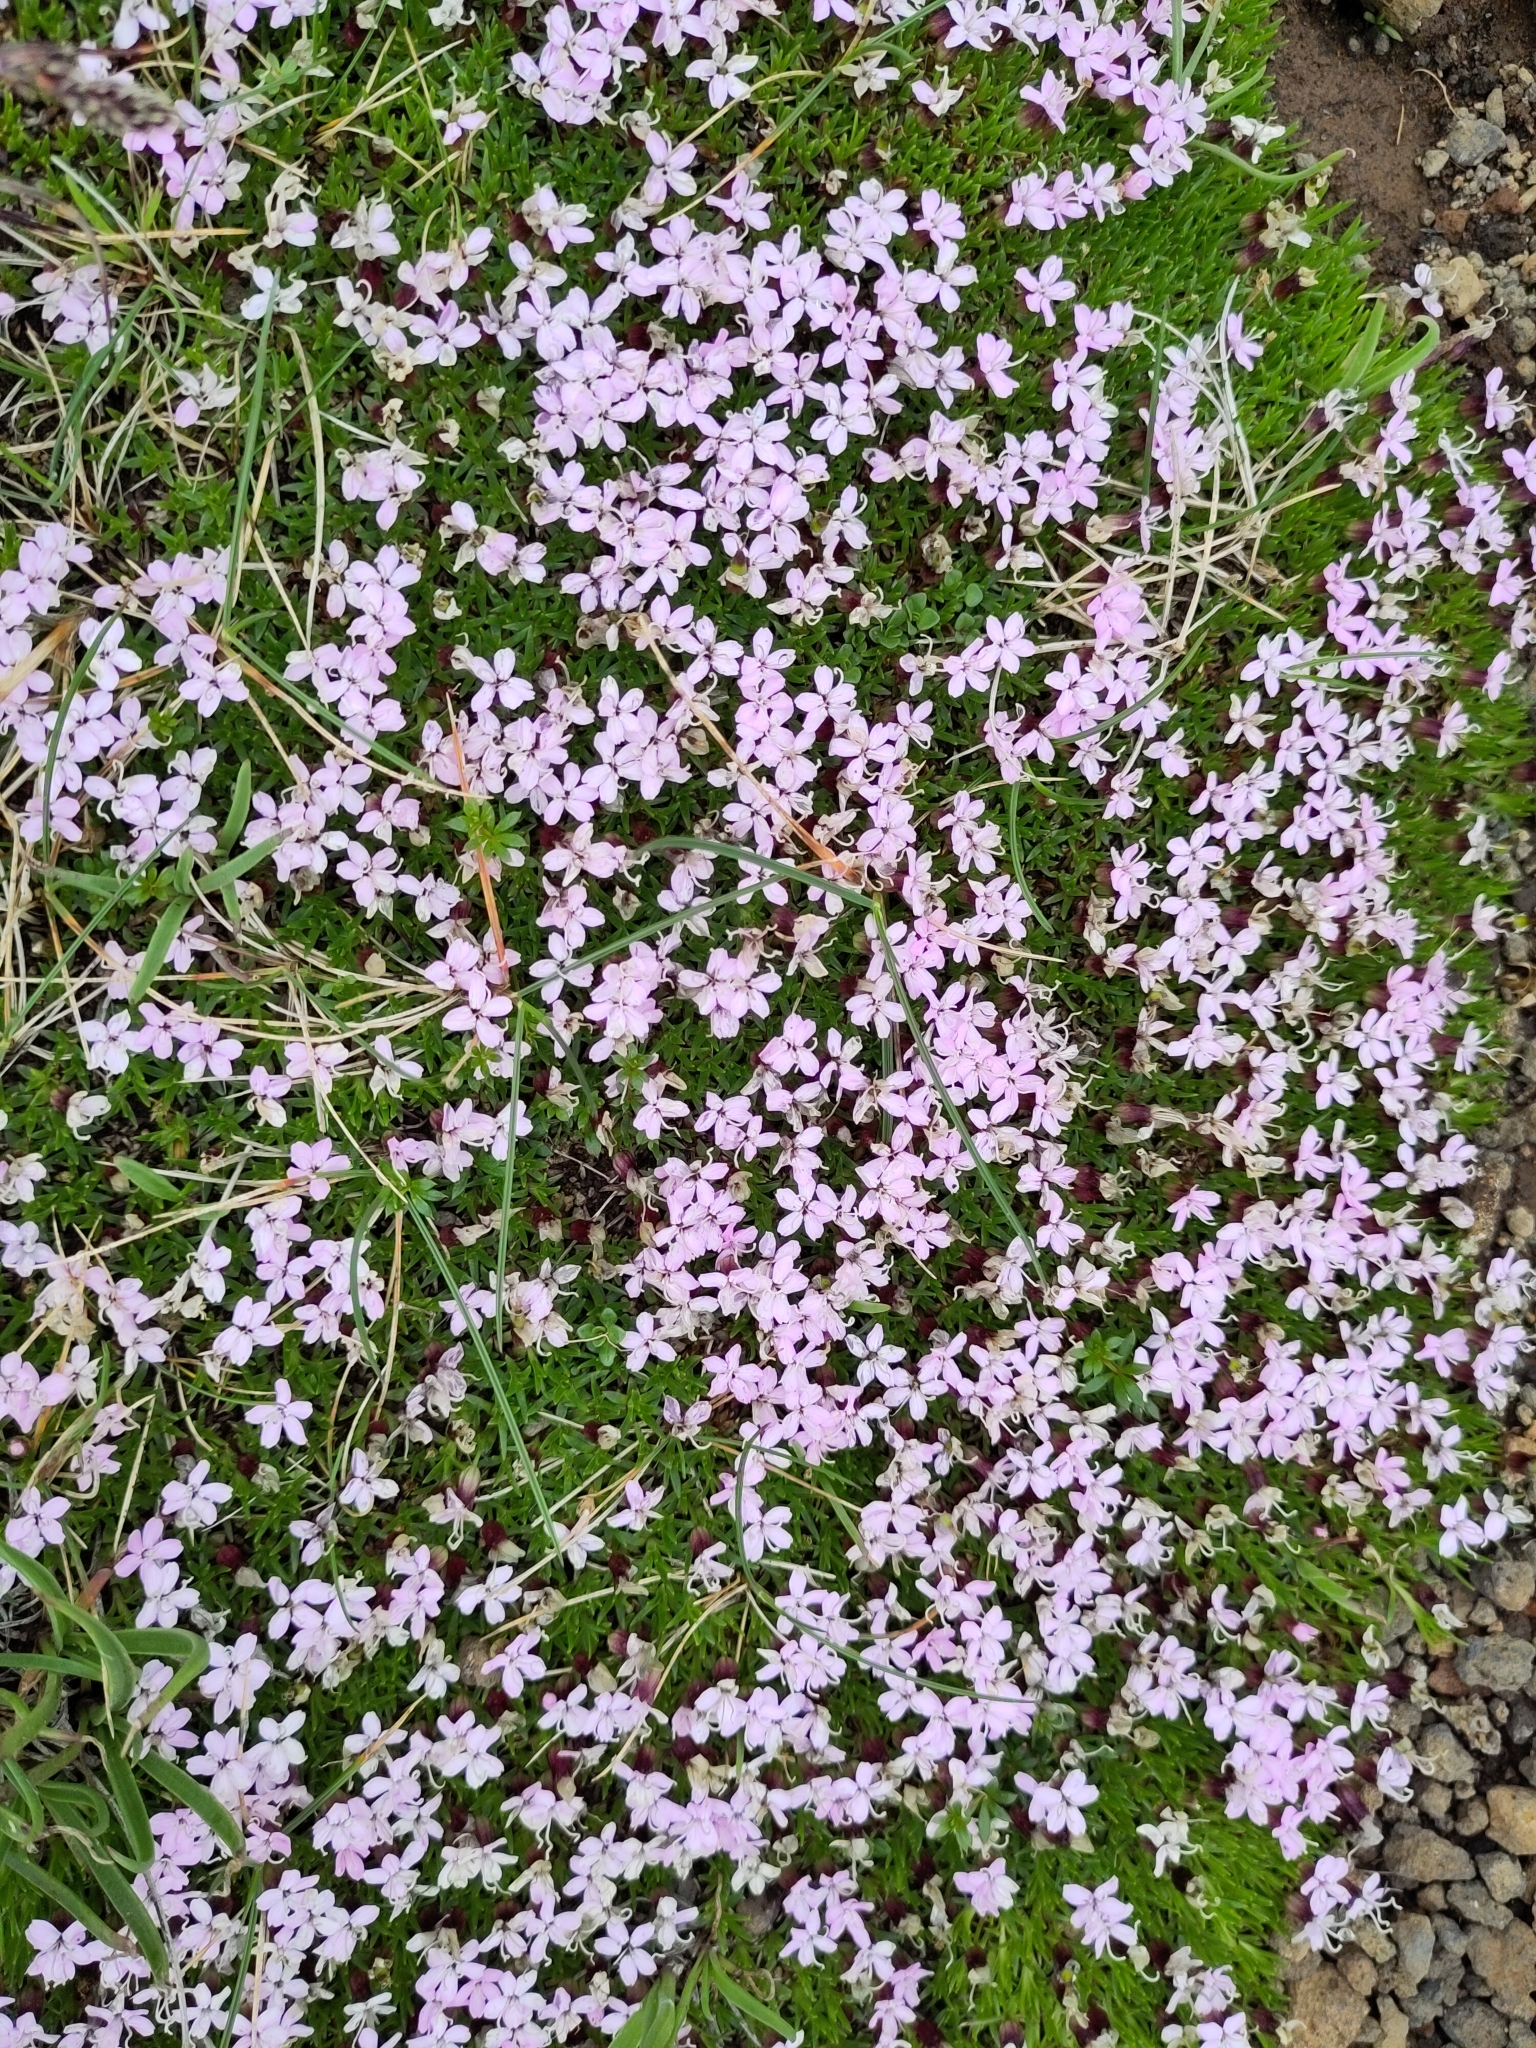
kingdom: Plantae
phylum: Tracheophyta
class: Magnoliopsida
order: Caryophyllales
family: Caryophyllaceae
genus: Silene
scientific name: Silene acaulis
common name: Moss campion
